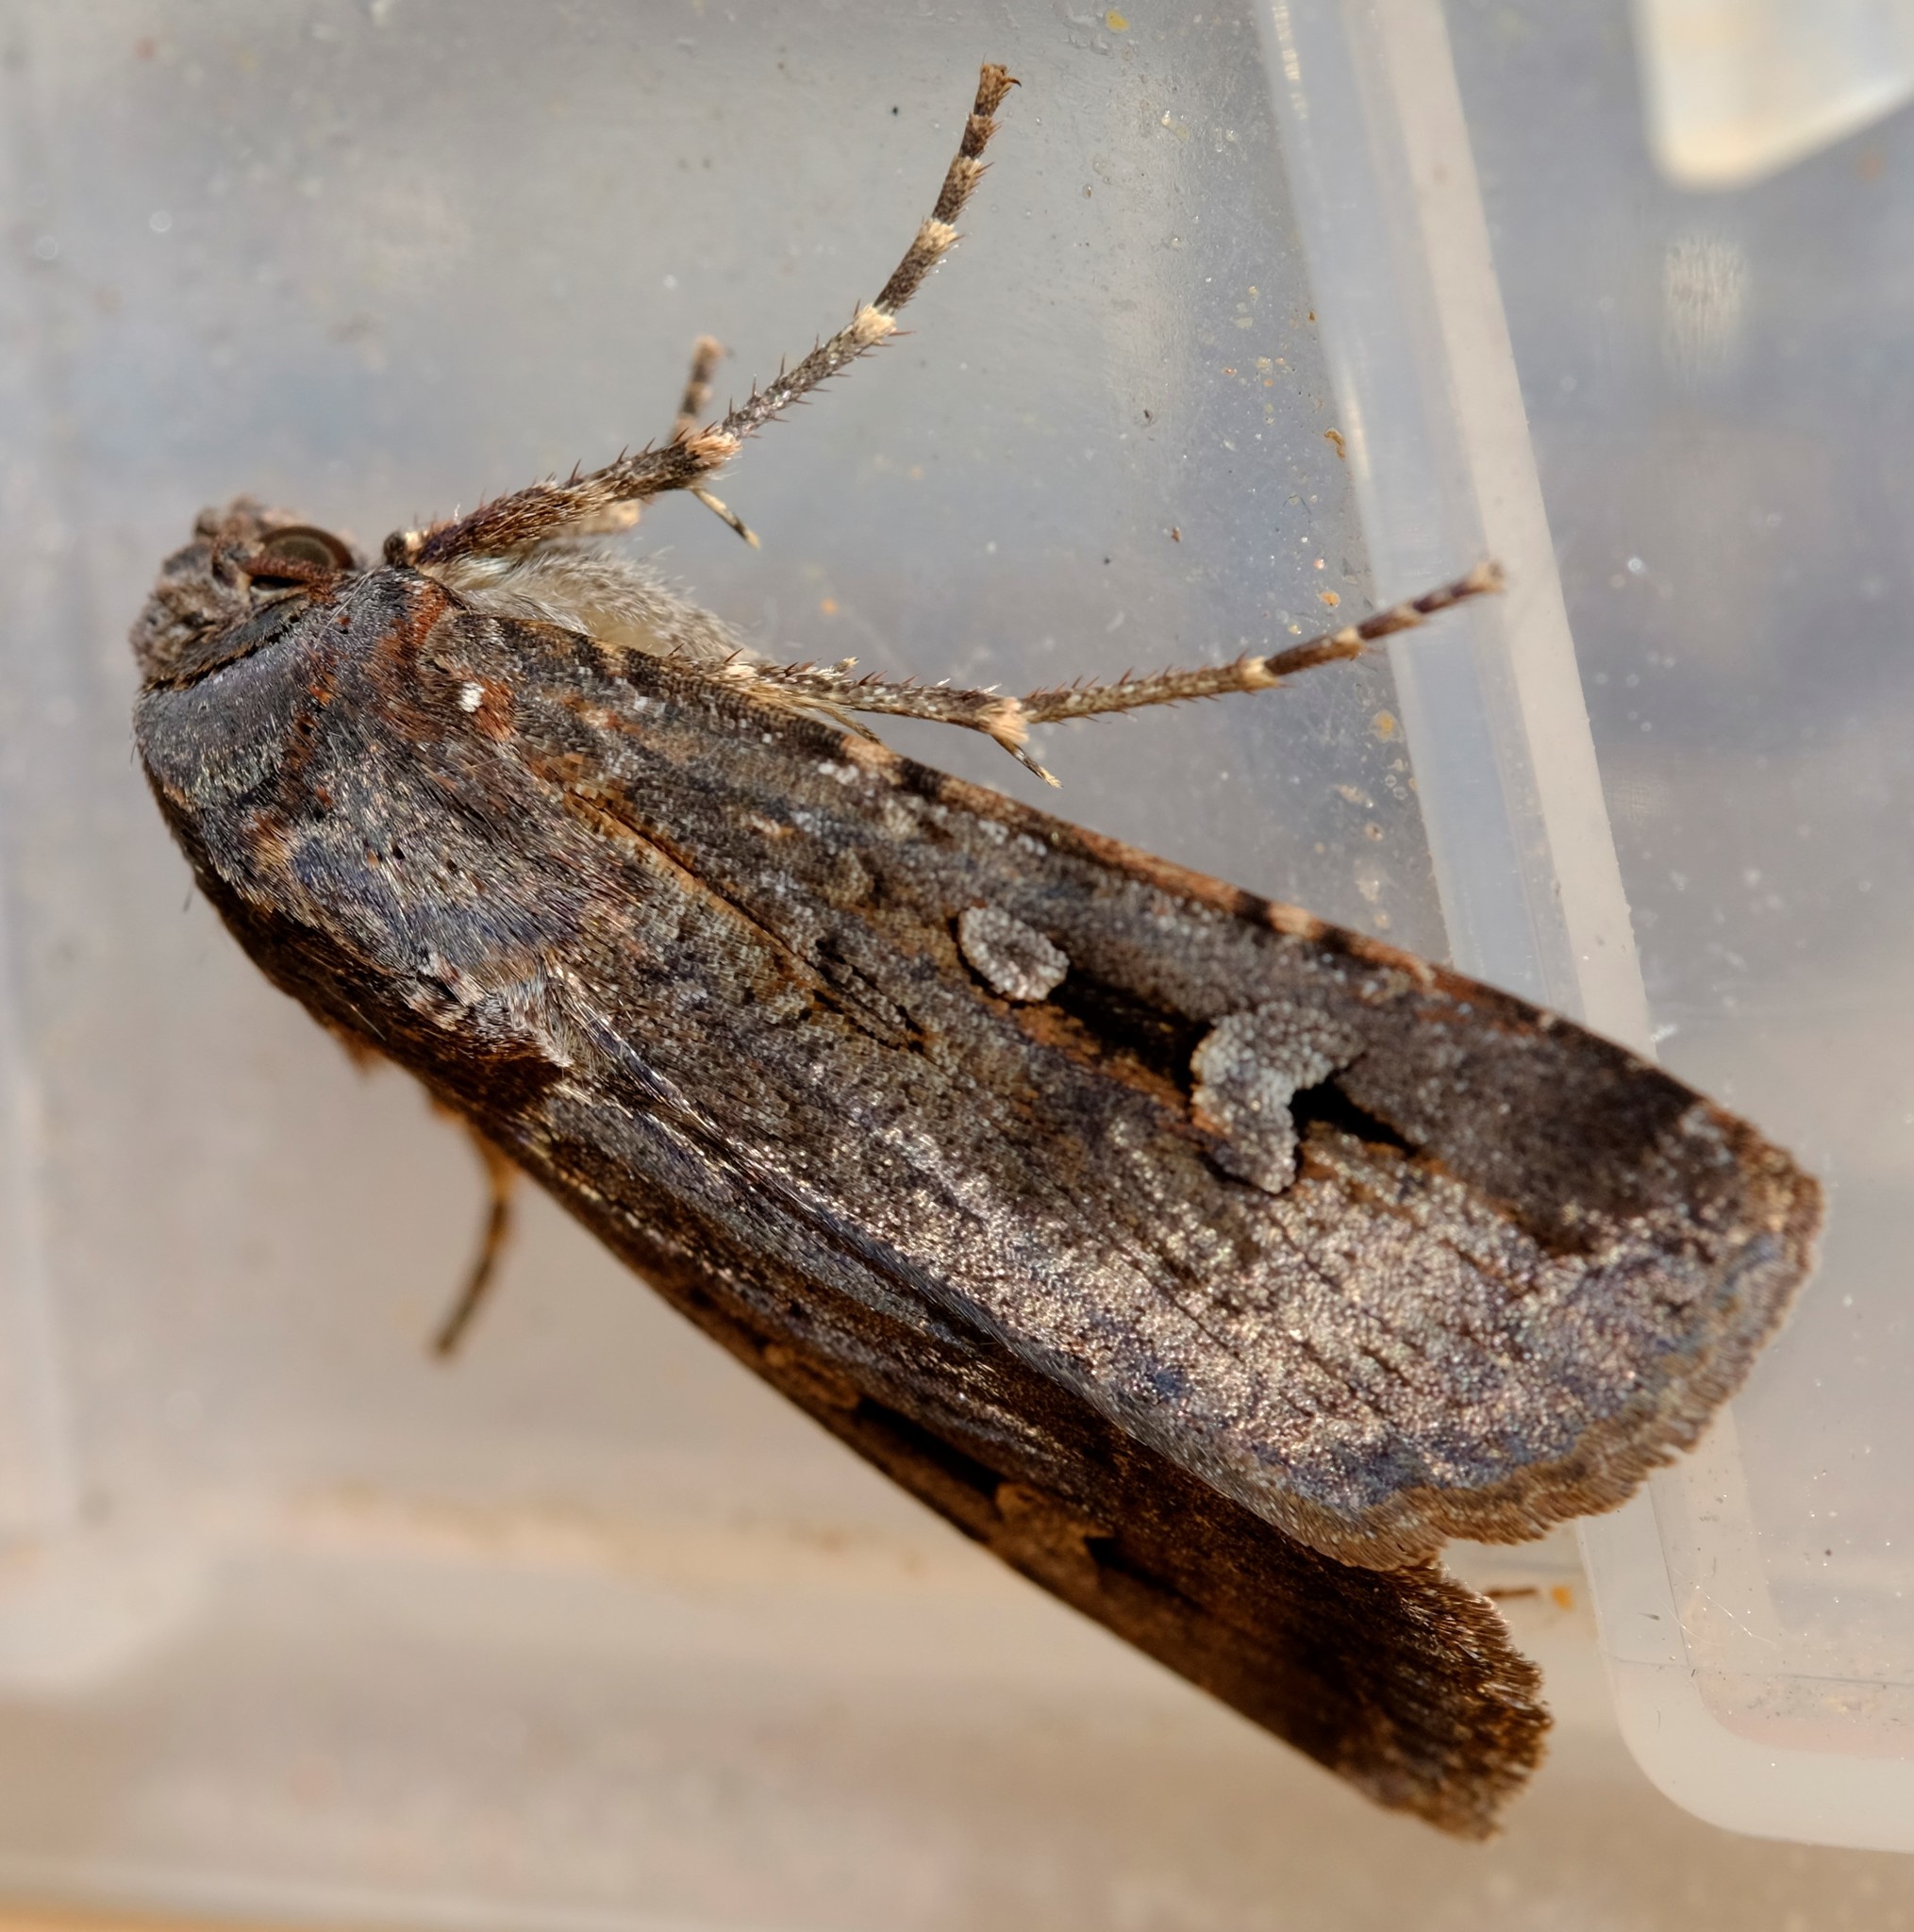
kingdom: Animalia
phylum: Arthropoda
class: Insecta
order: Lepidoptera
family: Noctuidae
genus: Agrotis
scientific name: Agrotis infusa
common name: Bogong moth
